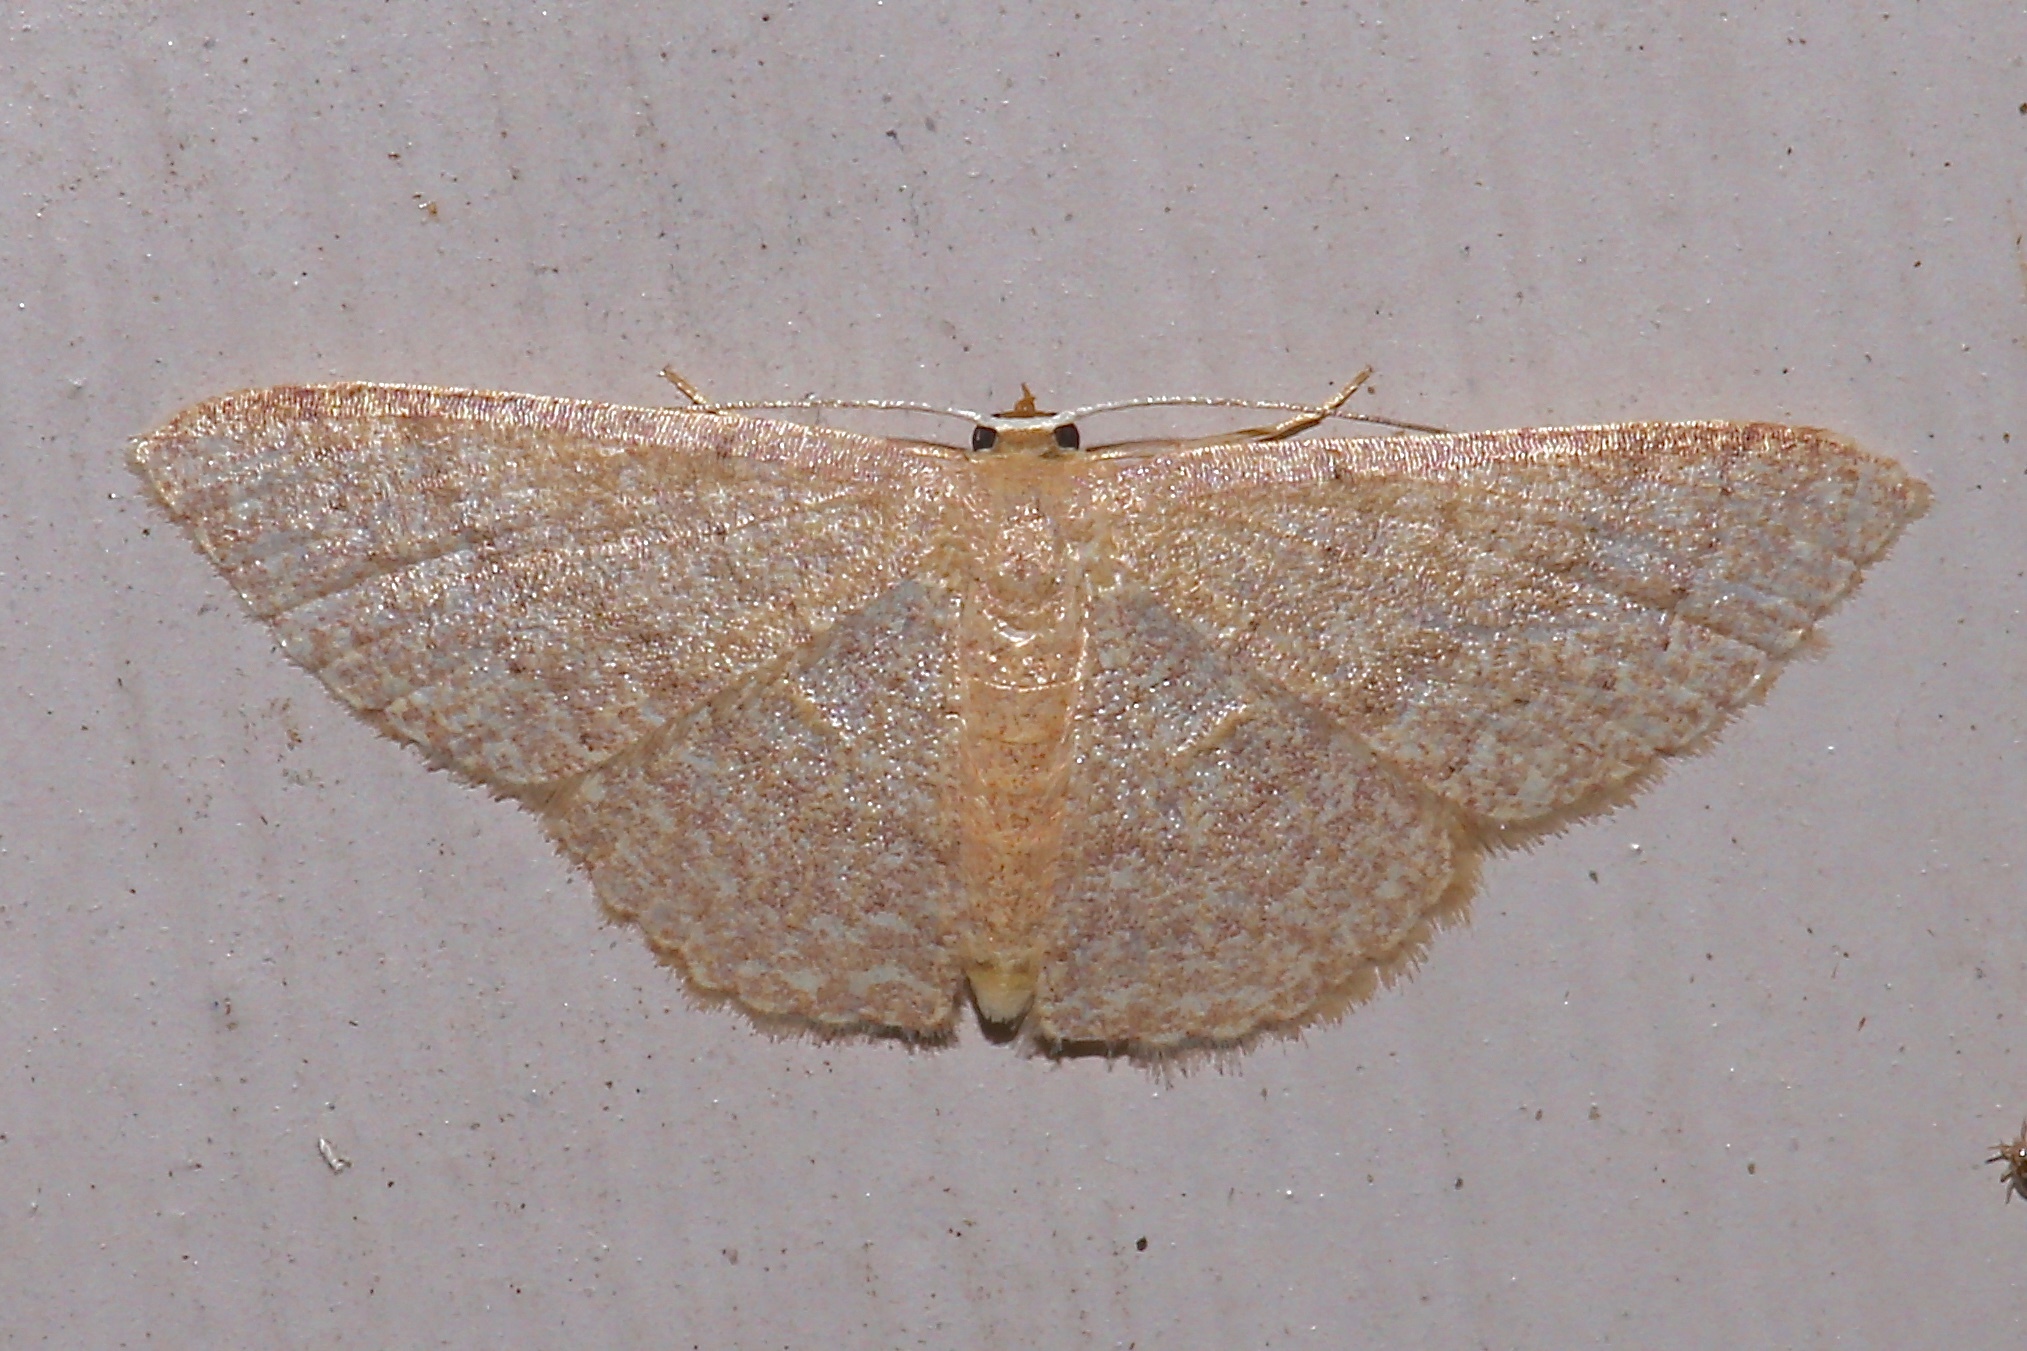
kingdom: Animalia
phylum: Arthropoda
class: Insecta
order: Lepidoptera
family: Geometridae
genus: Pleuroprucha
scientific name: Pleuroprucha insulsaria
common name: Common tan wave
